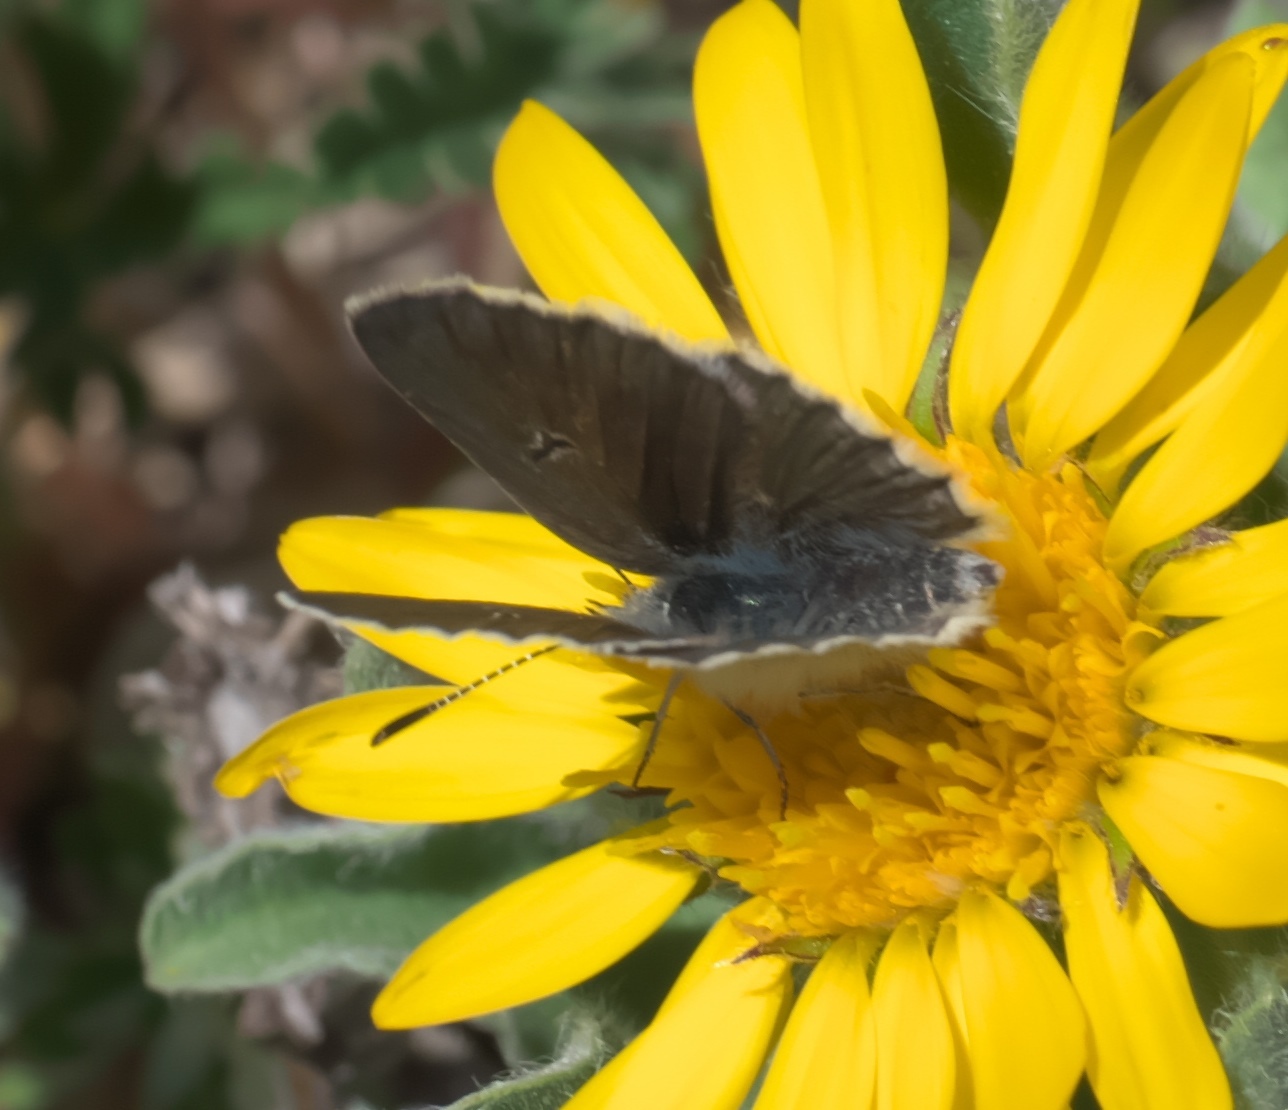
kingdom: Animalia
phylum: Arthropoda
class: Insecta
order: Lepidoptera
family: Lycaenidae
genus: Agriades
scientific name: Agriades glandon
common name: Glandon blue
